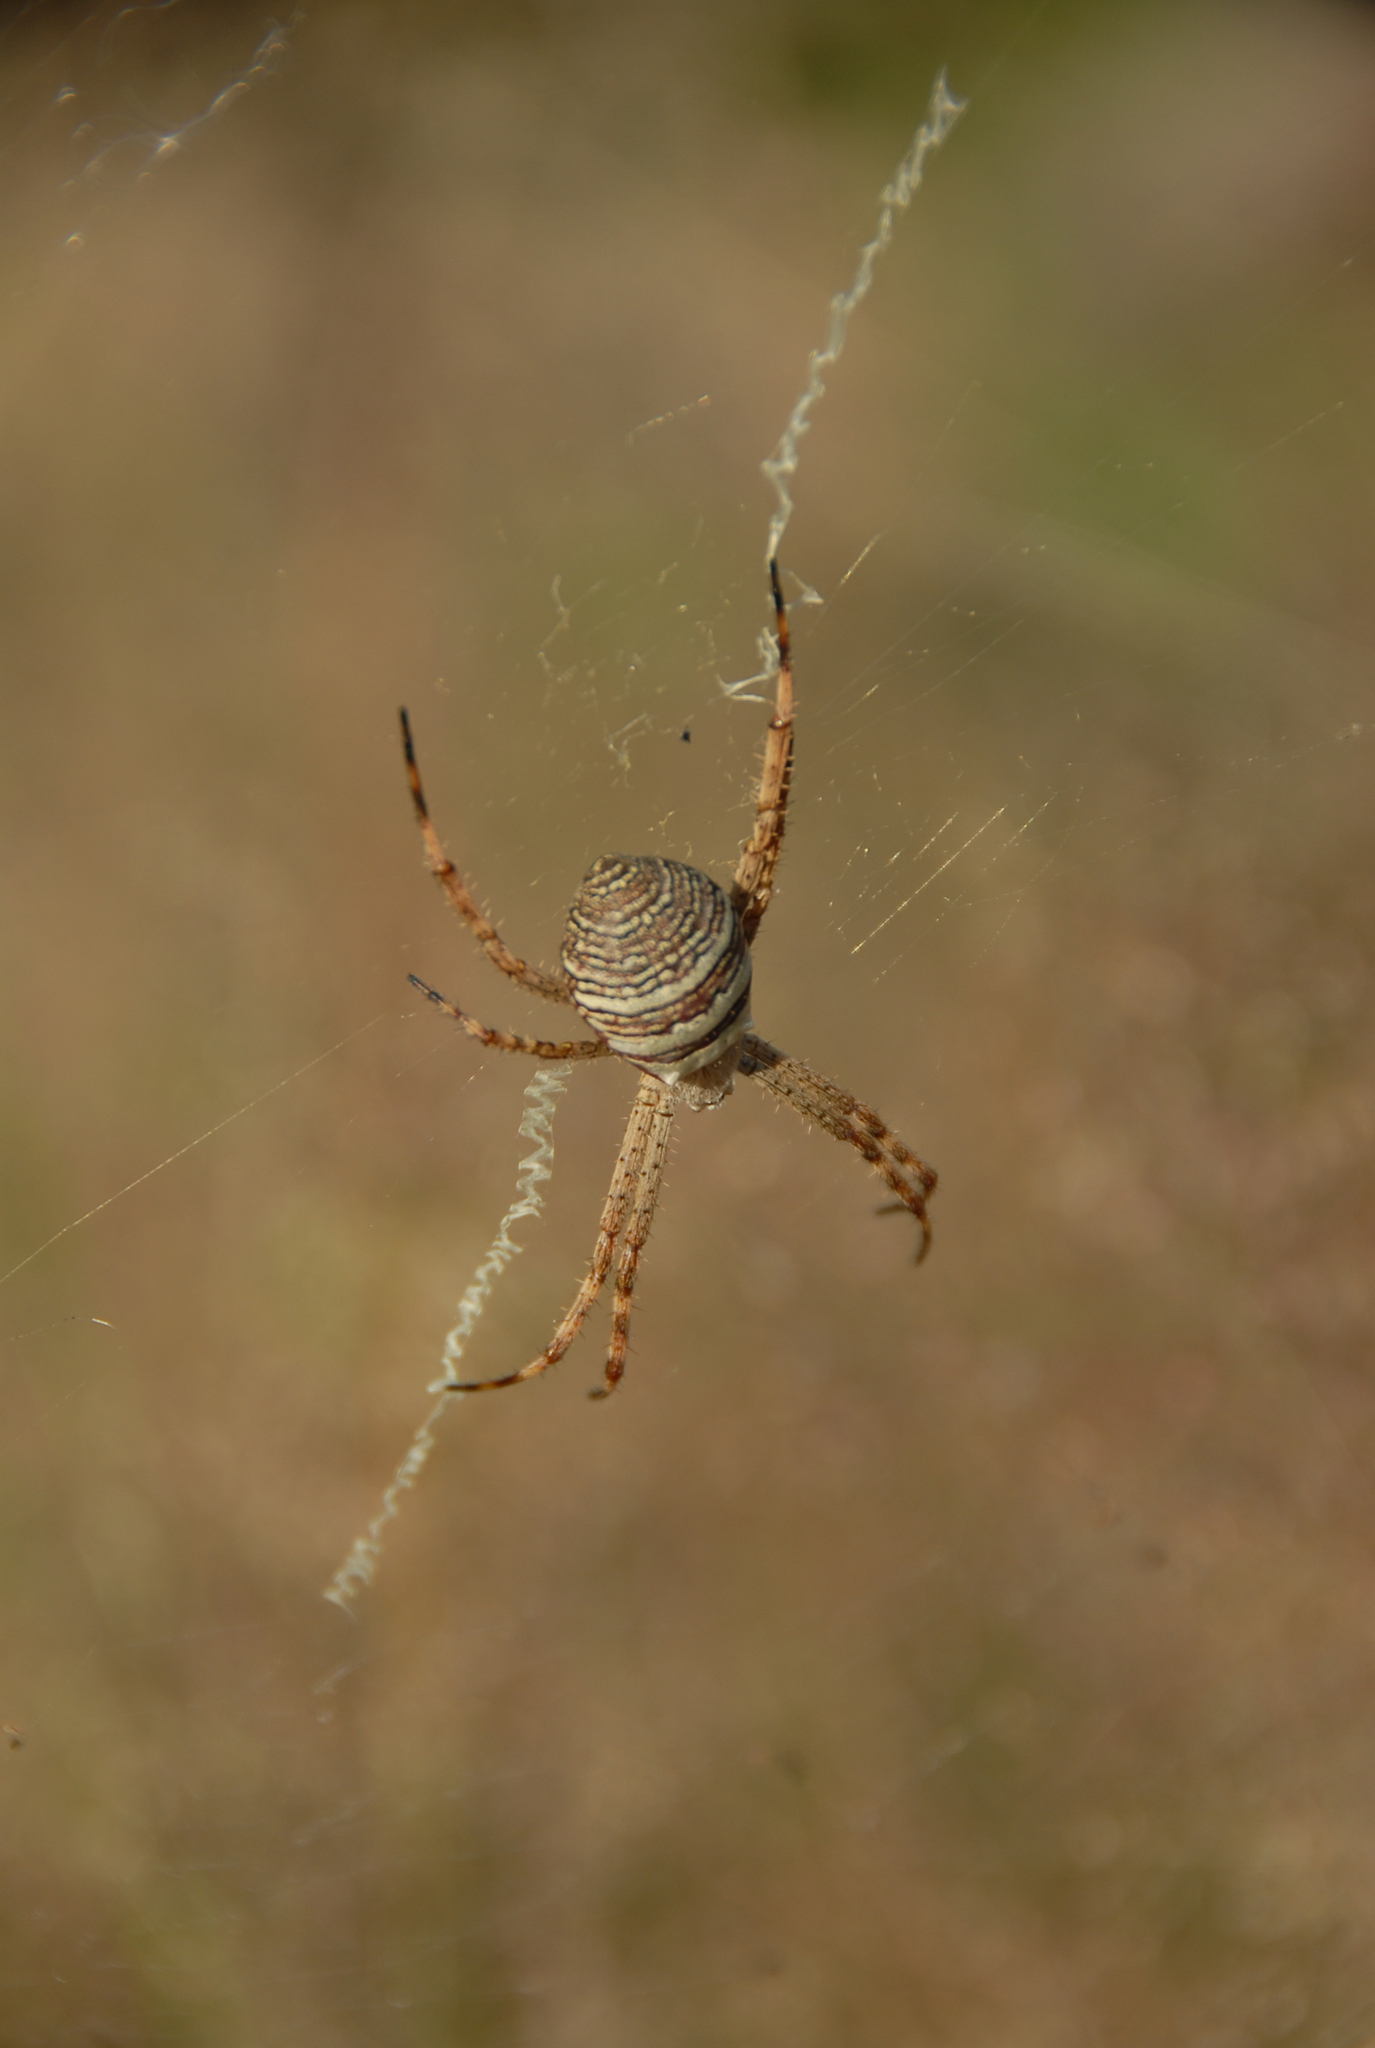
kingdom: Animalia
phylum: Arthropoda
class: Arachnida
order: Araneae
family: Araneidae
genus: Argiope
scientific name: Argiope aemula
